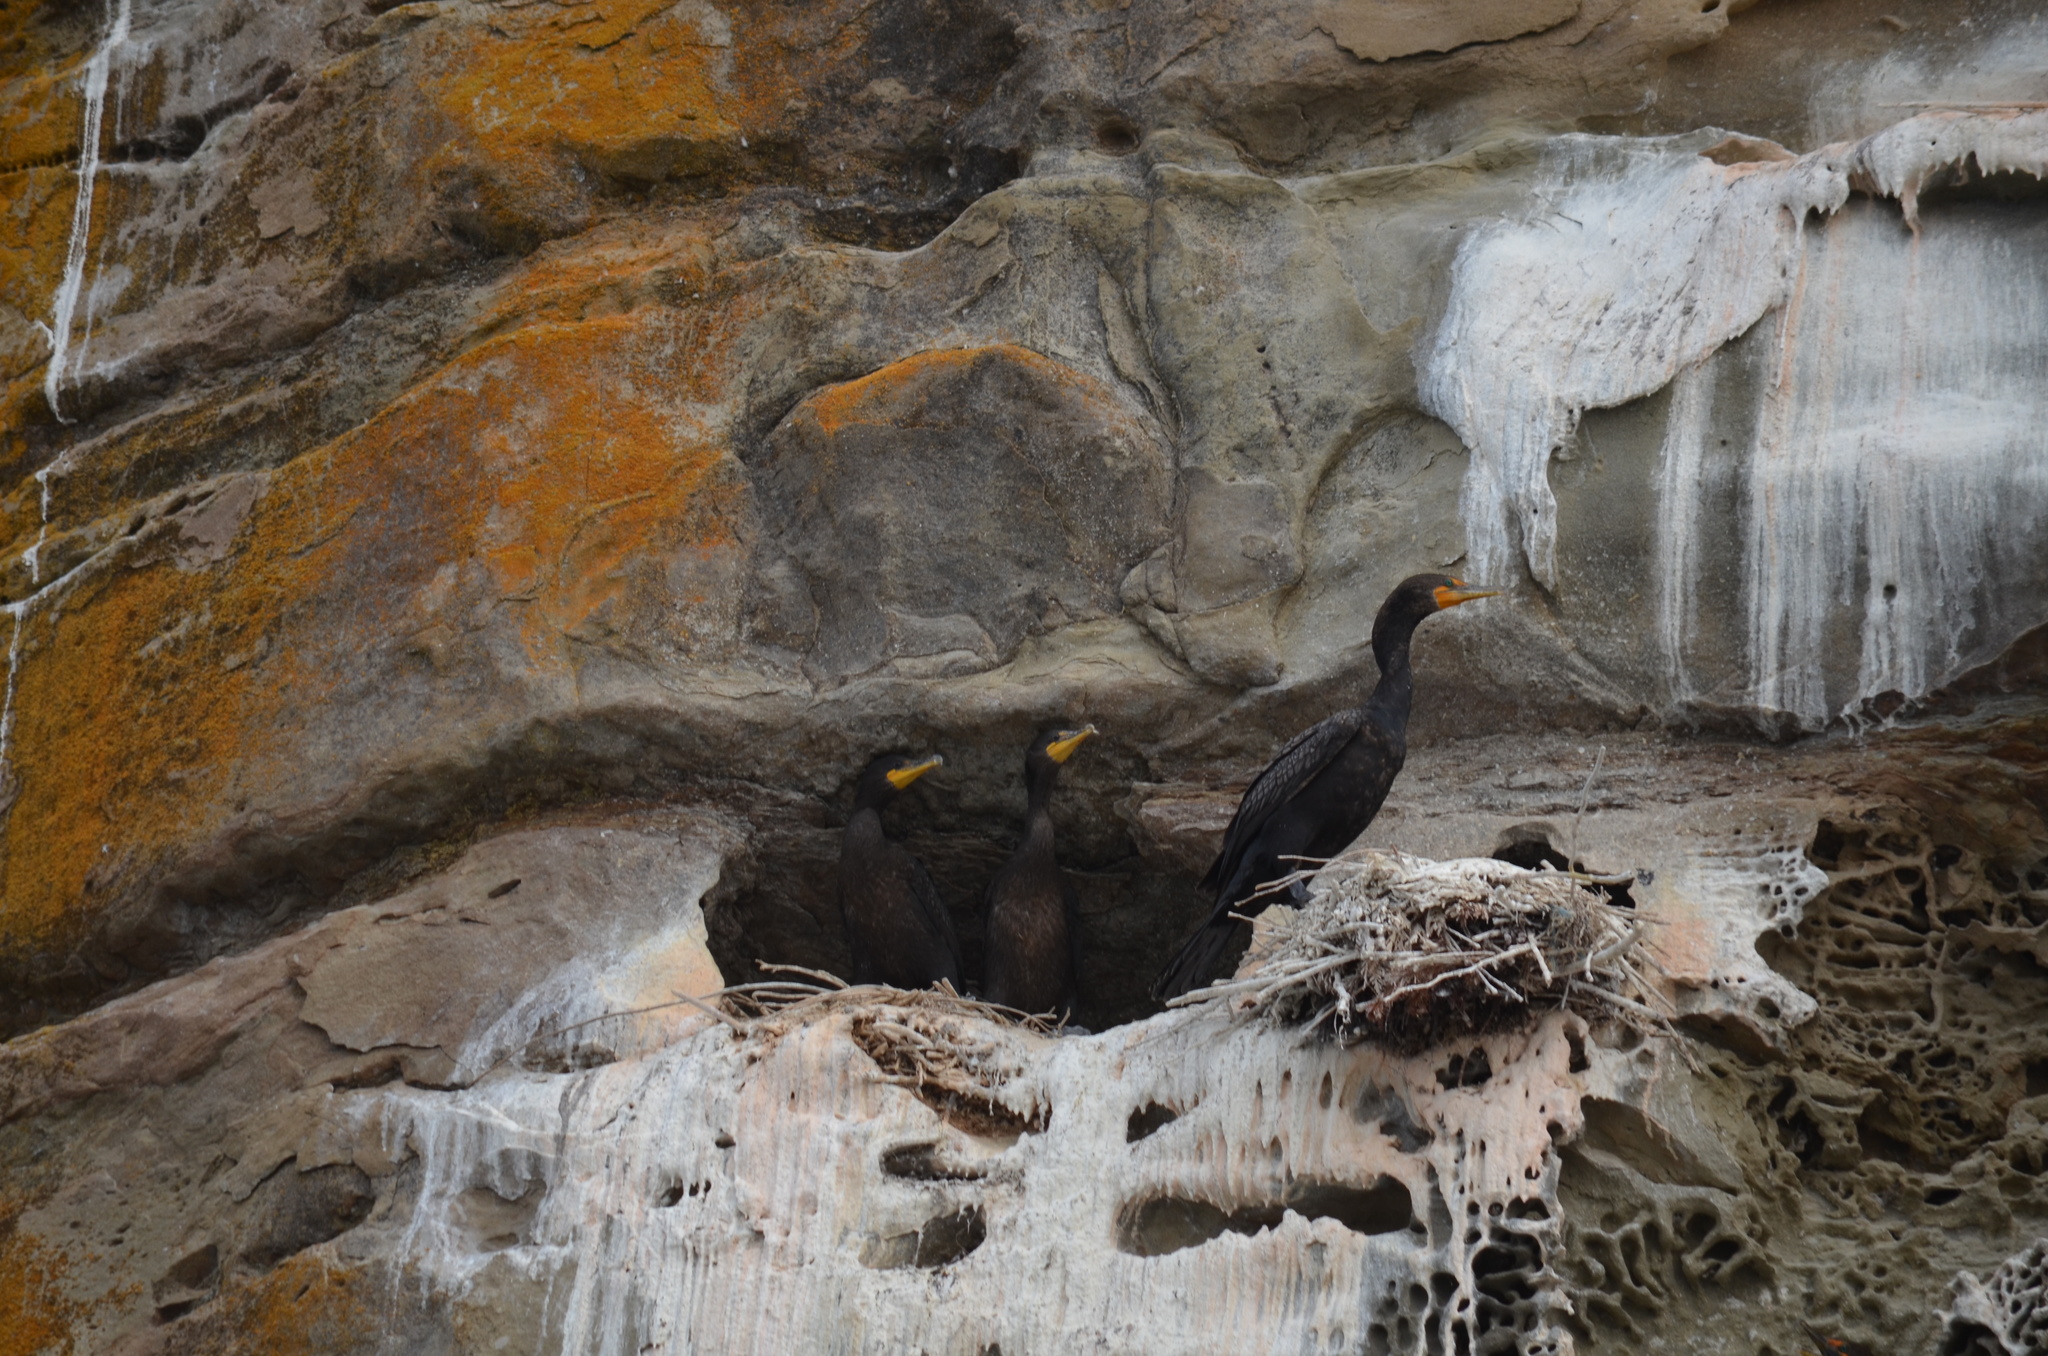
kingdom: Animalia
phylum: Chordata
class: Aves
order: Suliformes
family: Phalacrocoracidae
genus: Phalacrocorax
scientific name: Phalacrocorax auritus
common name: Double-crested cormorant
